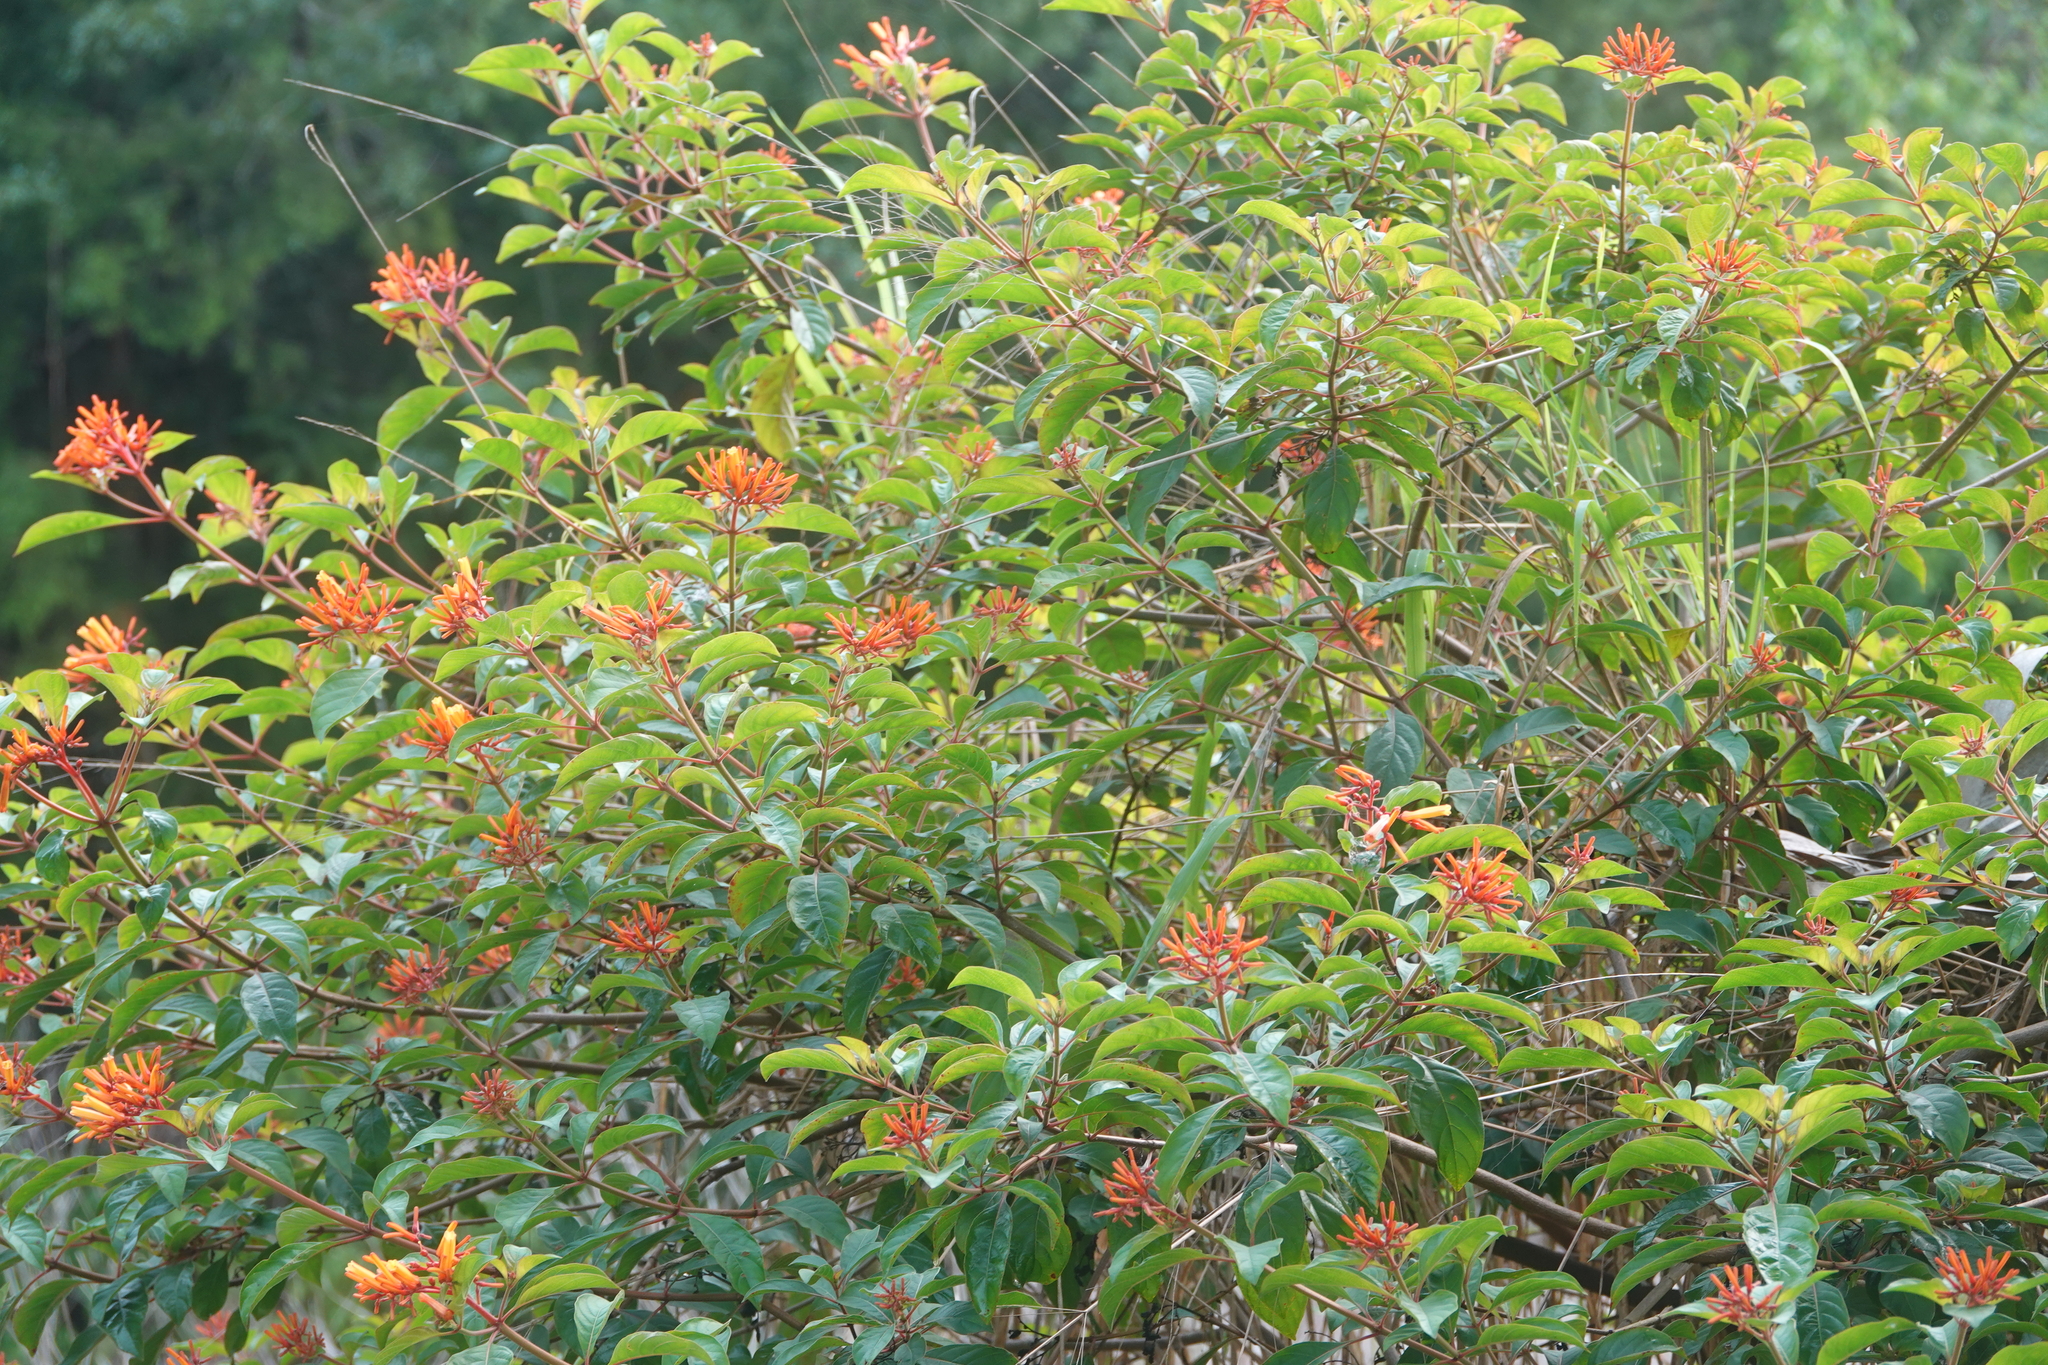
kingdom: Plantae
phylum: Tracheophyta
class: Magnoliopsida
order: Gentianales
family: Rubiaceae
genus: Hamelia
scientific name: Hamelia patens
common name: Redhead
